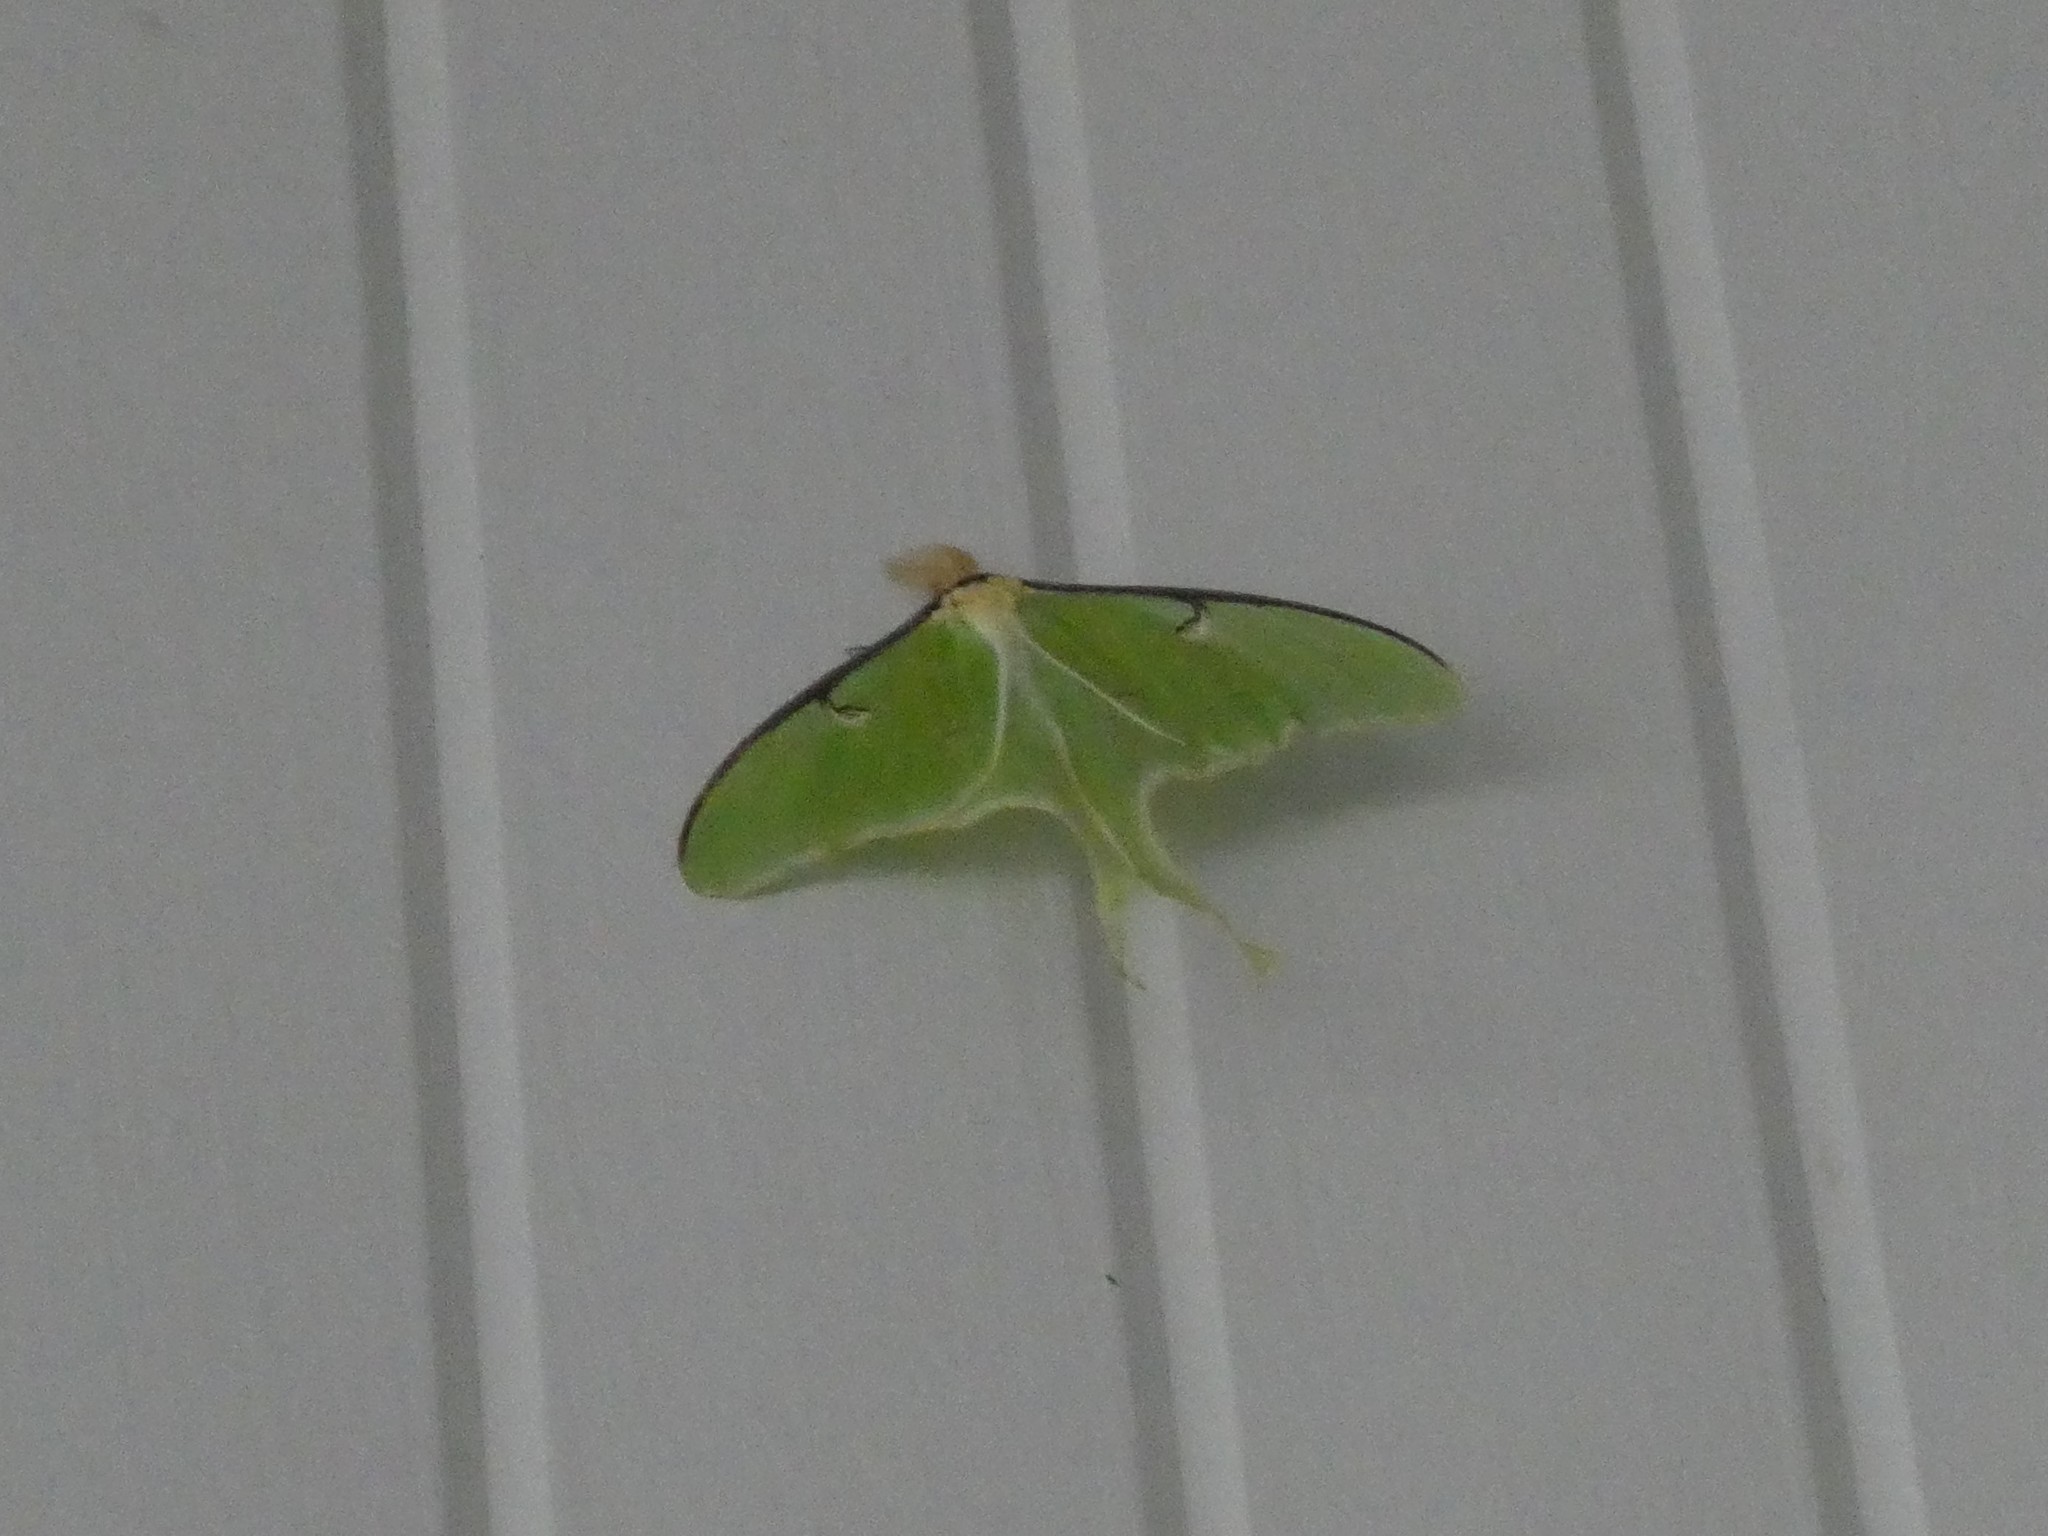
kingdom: Animalia
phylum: Arthropoda
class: Insecta
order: Lepidoptera
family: Saturniidae
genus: Actias
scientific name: Actias luna
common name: Luna moth
